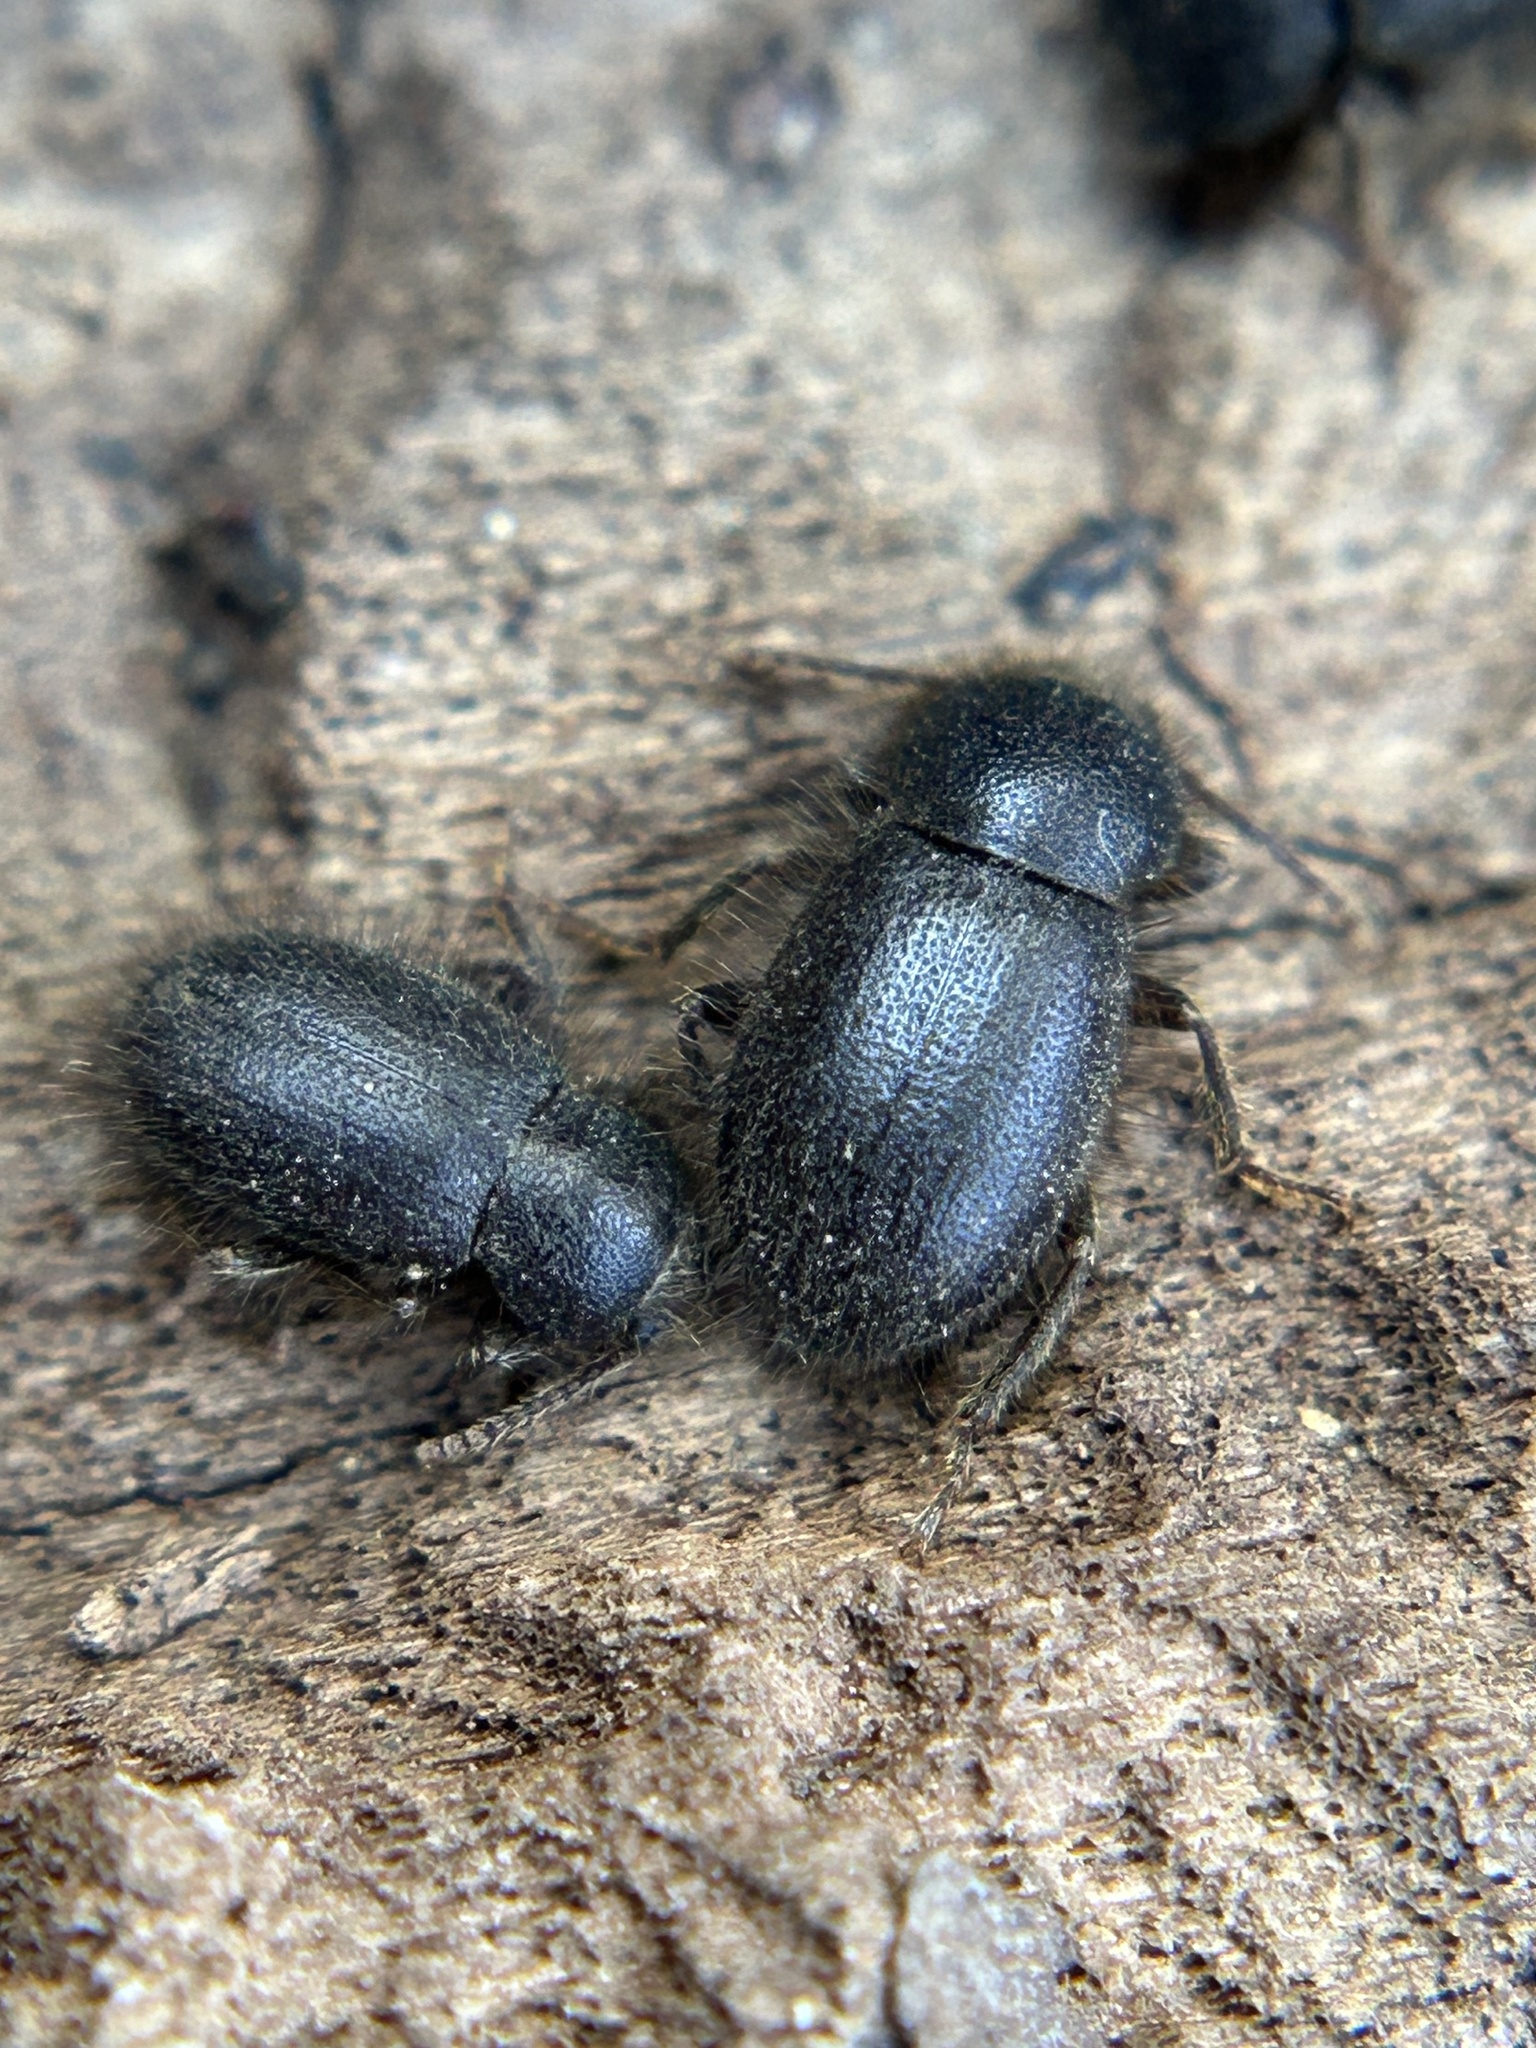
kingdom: Animalia
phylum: Arthropoda
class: Insecta
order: Coleoptera
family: Tenebrionidae
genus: Eleodes
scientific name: Eleodes littoralis
